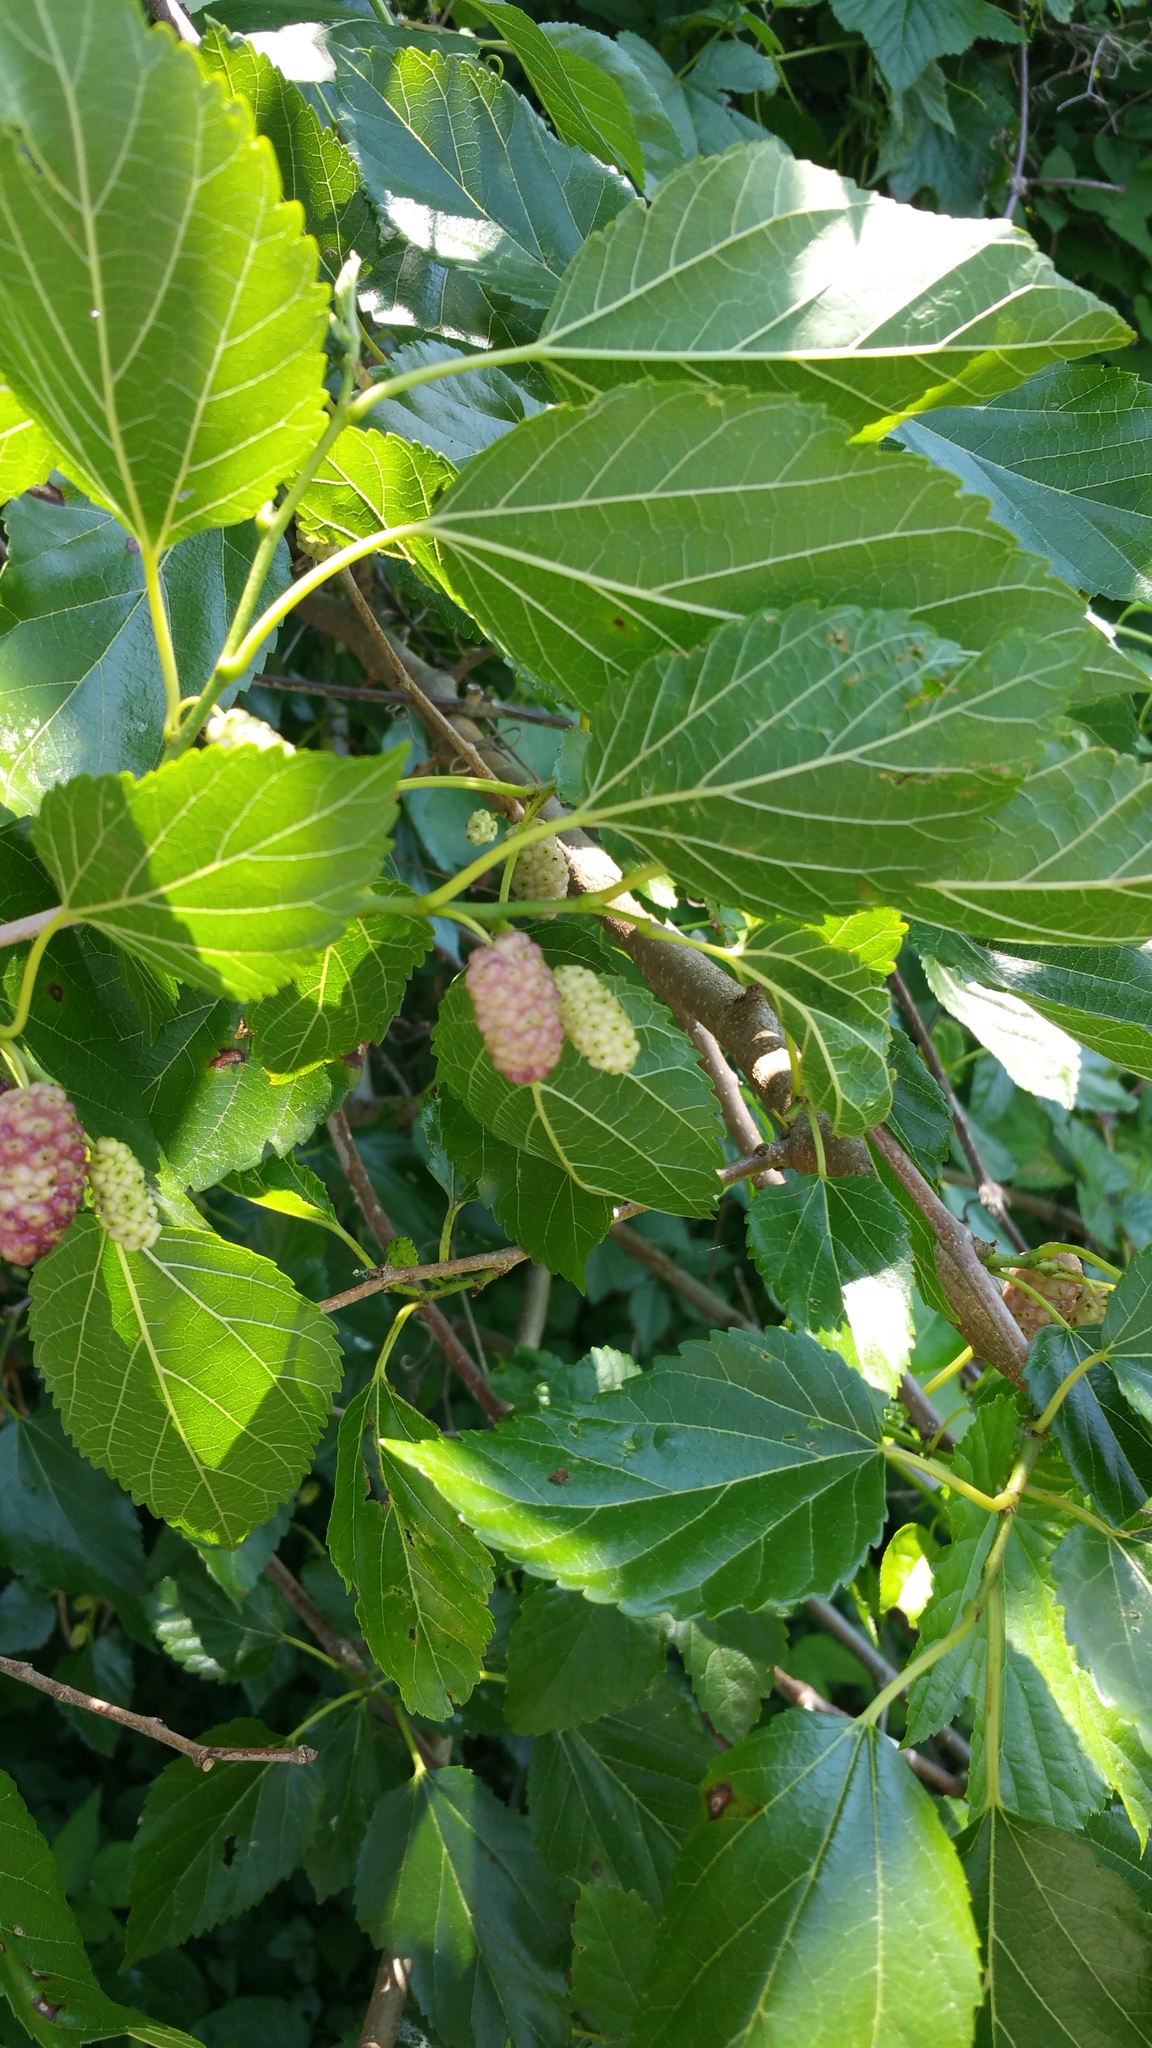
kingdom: Plantae
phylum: Tracheophyta
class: Magnoliopsida
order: Rosales
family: Moraceae
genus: Morus
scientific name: Morus alba
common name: White mulberry
